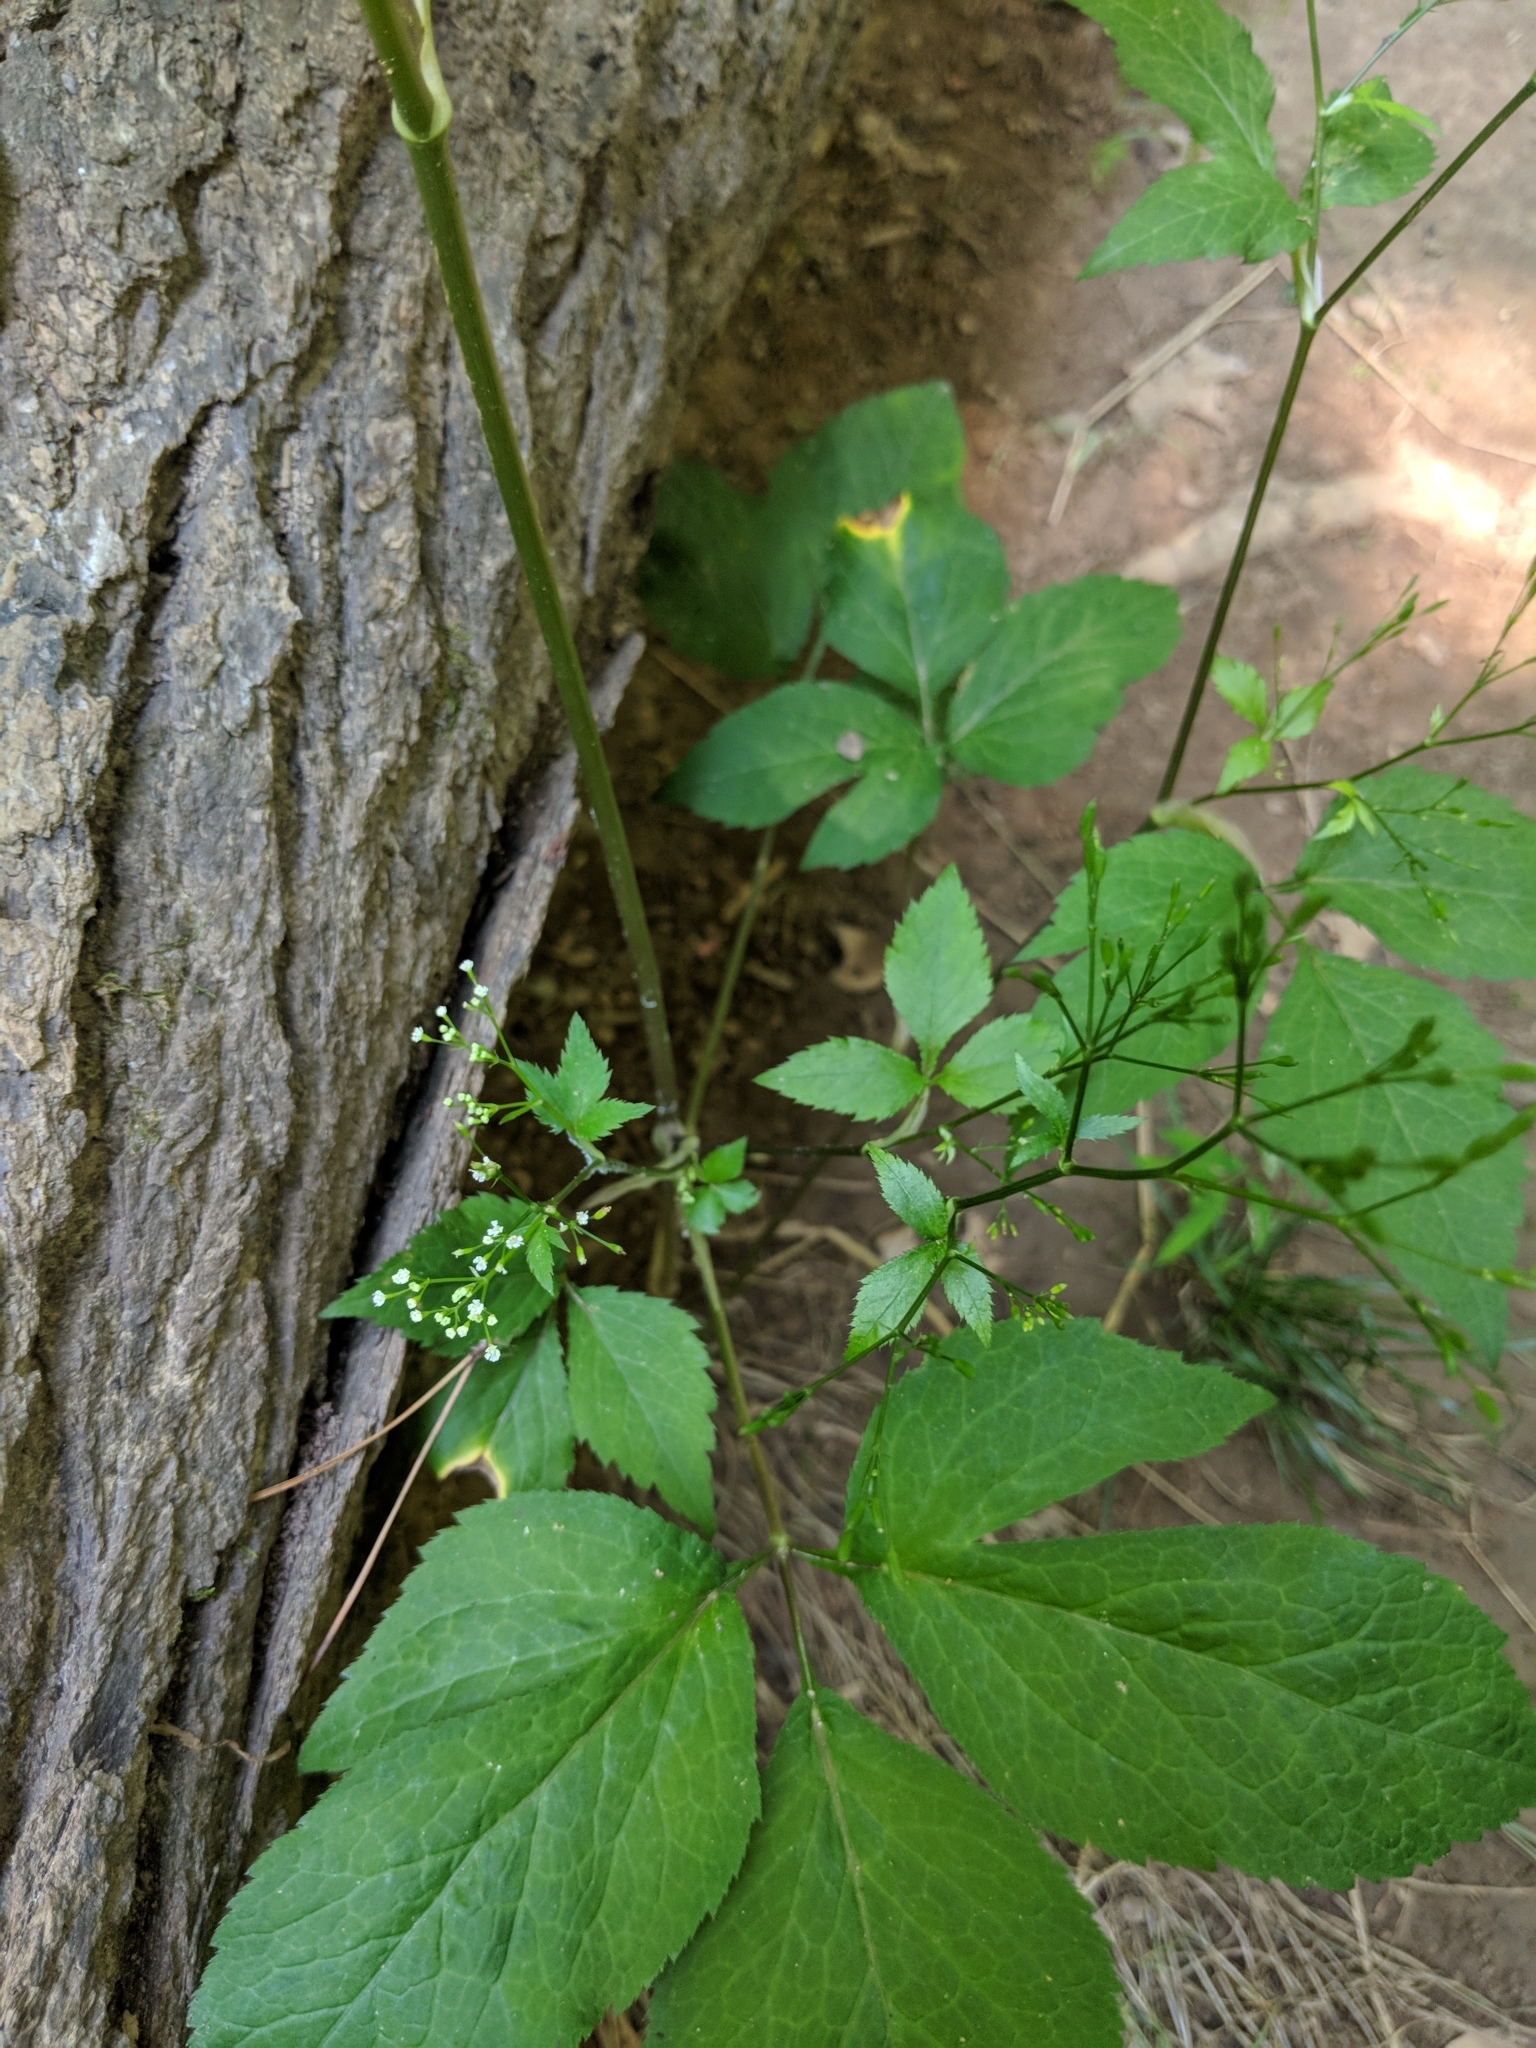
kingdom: Plantae
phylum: Tracheophyta
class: Magnoliopsida
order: Apiales
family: Apiaceae
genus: Cryptotaenia
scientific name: Cryptotaenia canadensis
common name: Honewort
